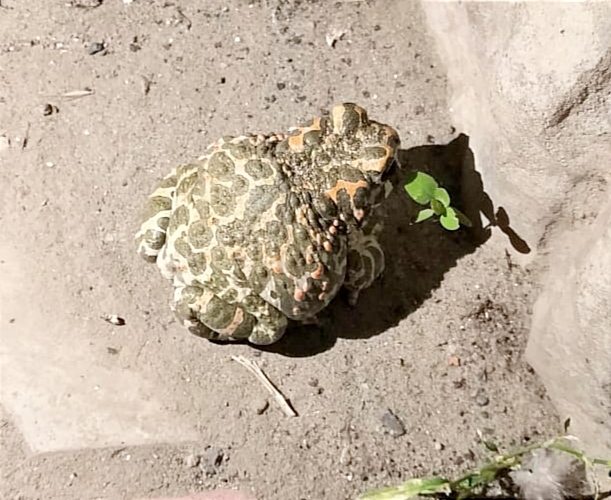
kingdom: Animalia
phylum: Chordata
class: Amphibia
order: Anura
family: Bufonidae
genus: Bufotes
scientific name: Bufotes viridis
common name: European green toad
